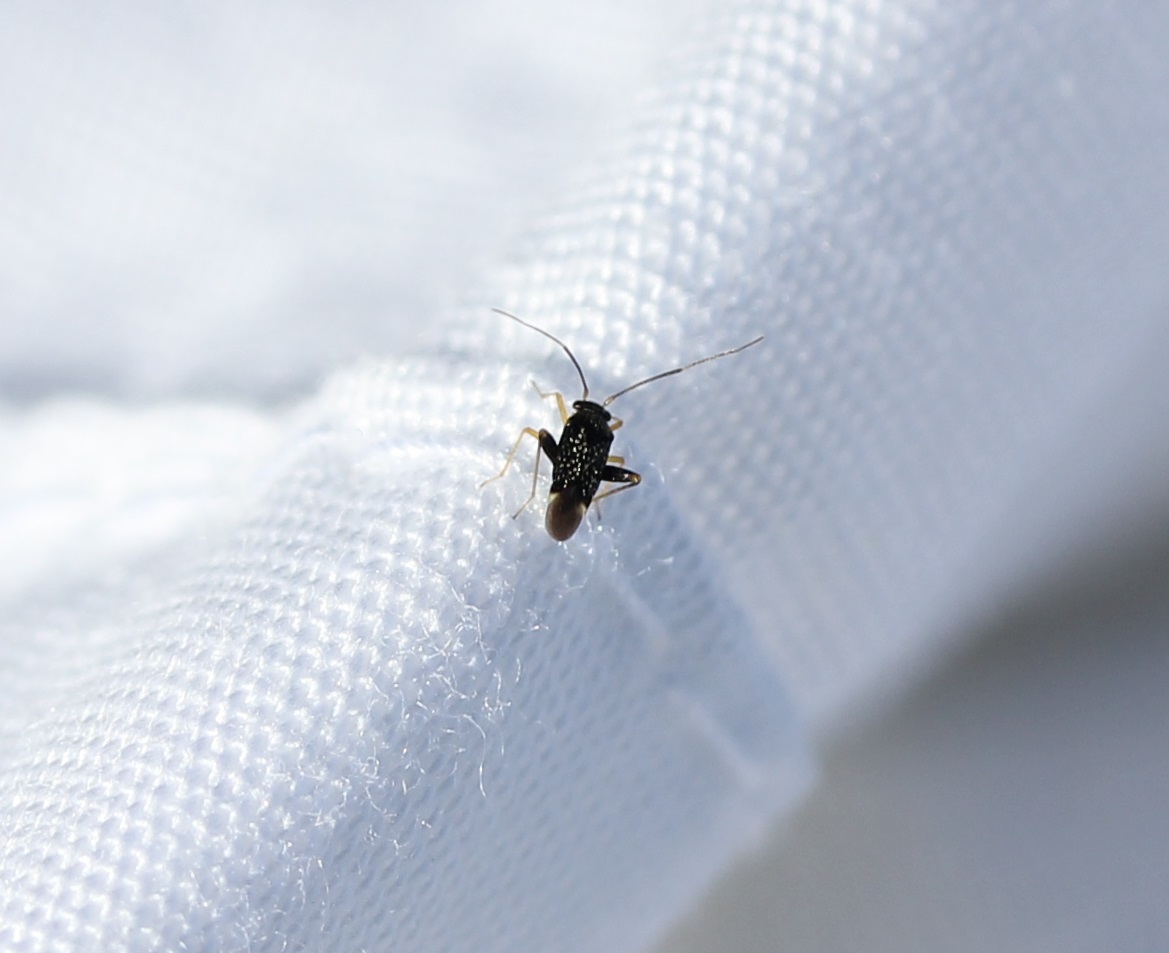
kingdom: Animalia
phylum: Arthropoda
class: Insecta
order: Hemiptera
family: Miridae
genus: Microtechnites
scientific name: Microtechnites bractatus
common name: Garden fleahopper
